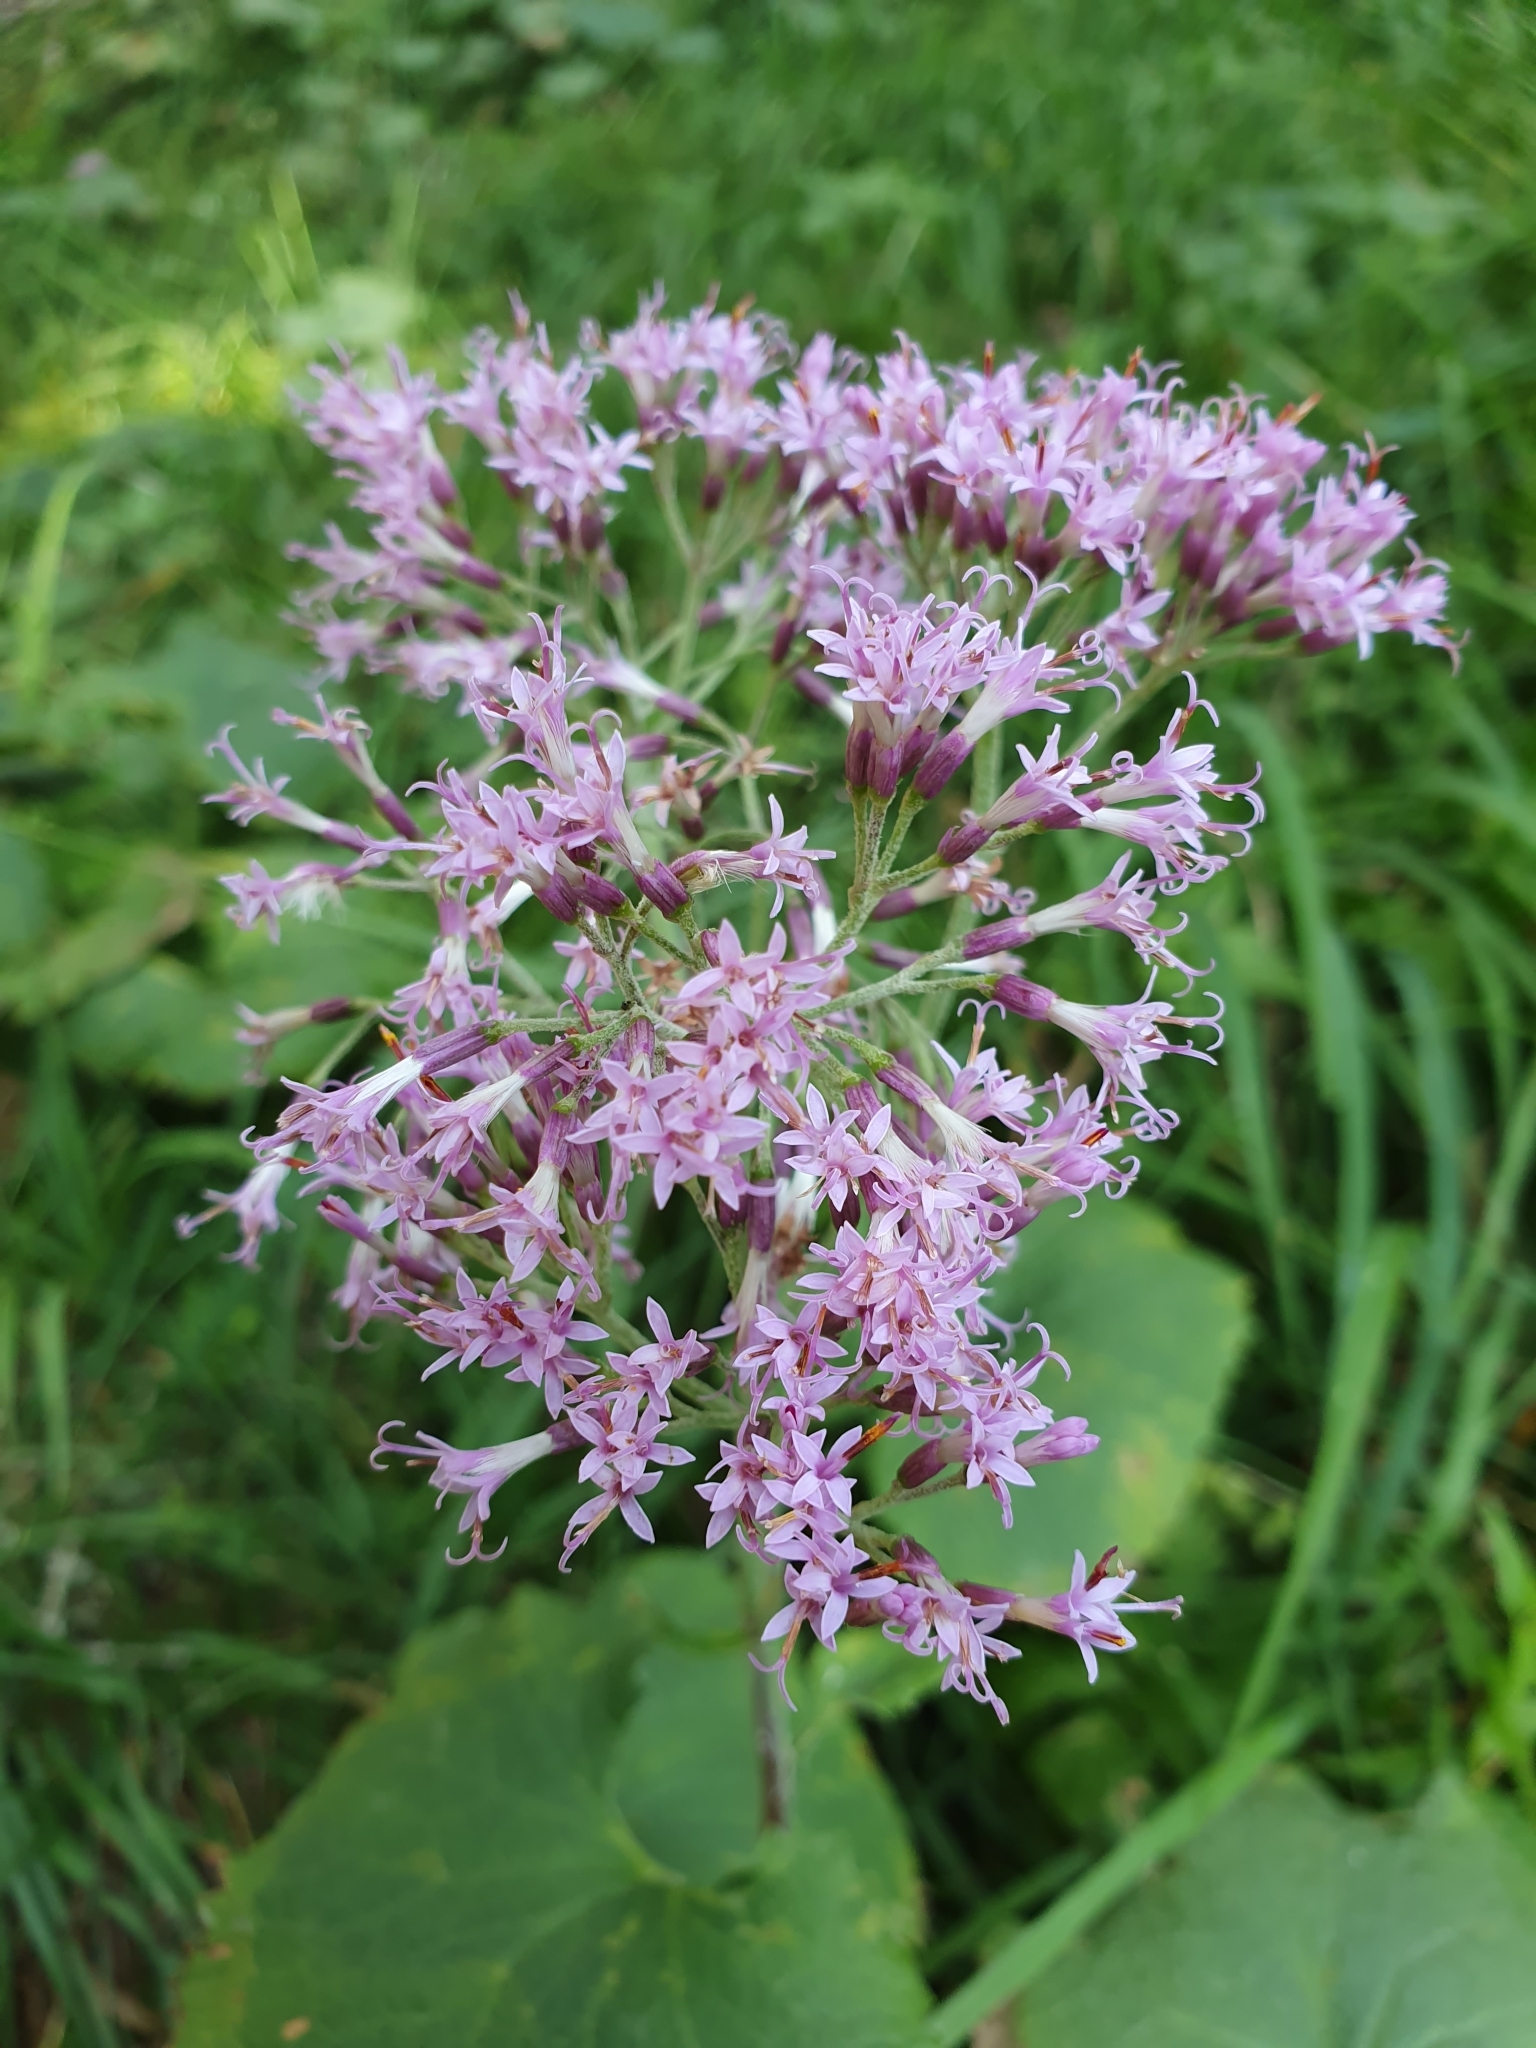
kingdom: Plantae
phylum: Tracheophyta
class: Magnoliopsida
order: Asterales
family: Asteraceae
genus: Adenostyles
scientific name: Adenostyles alliariae
